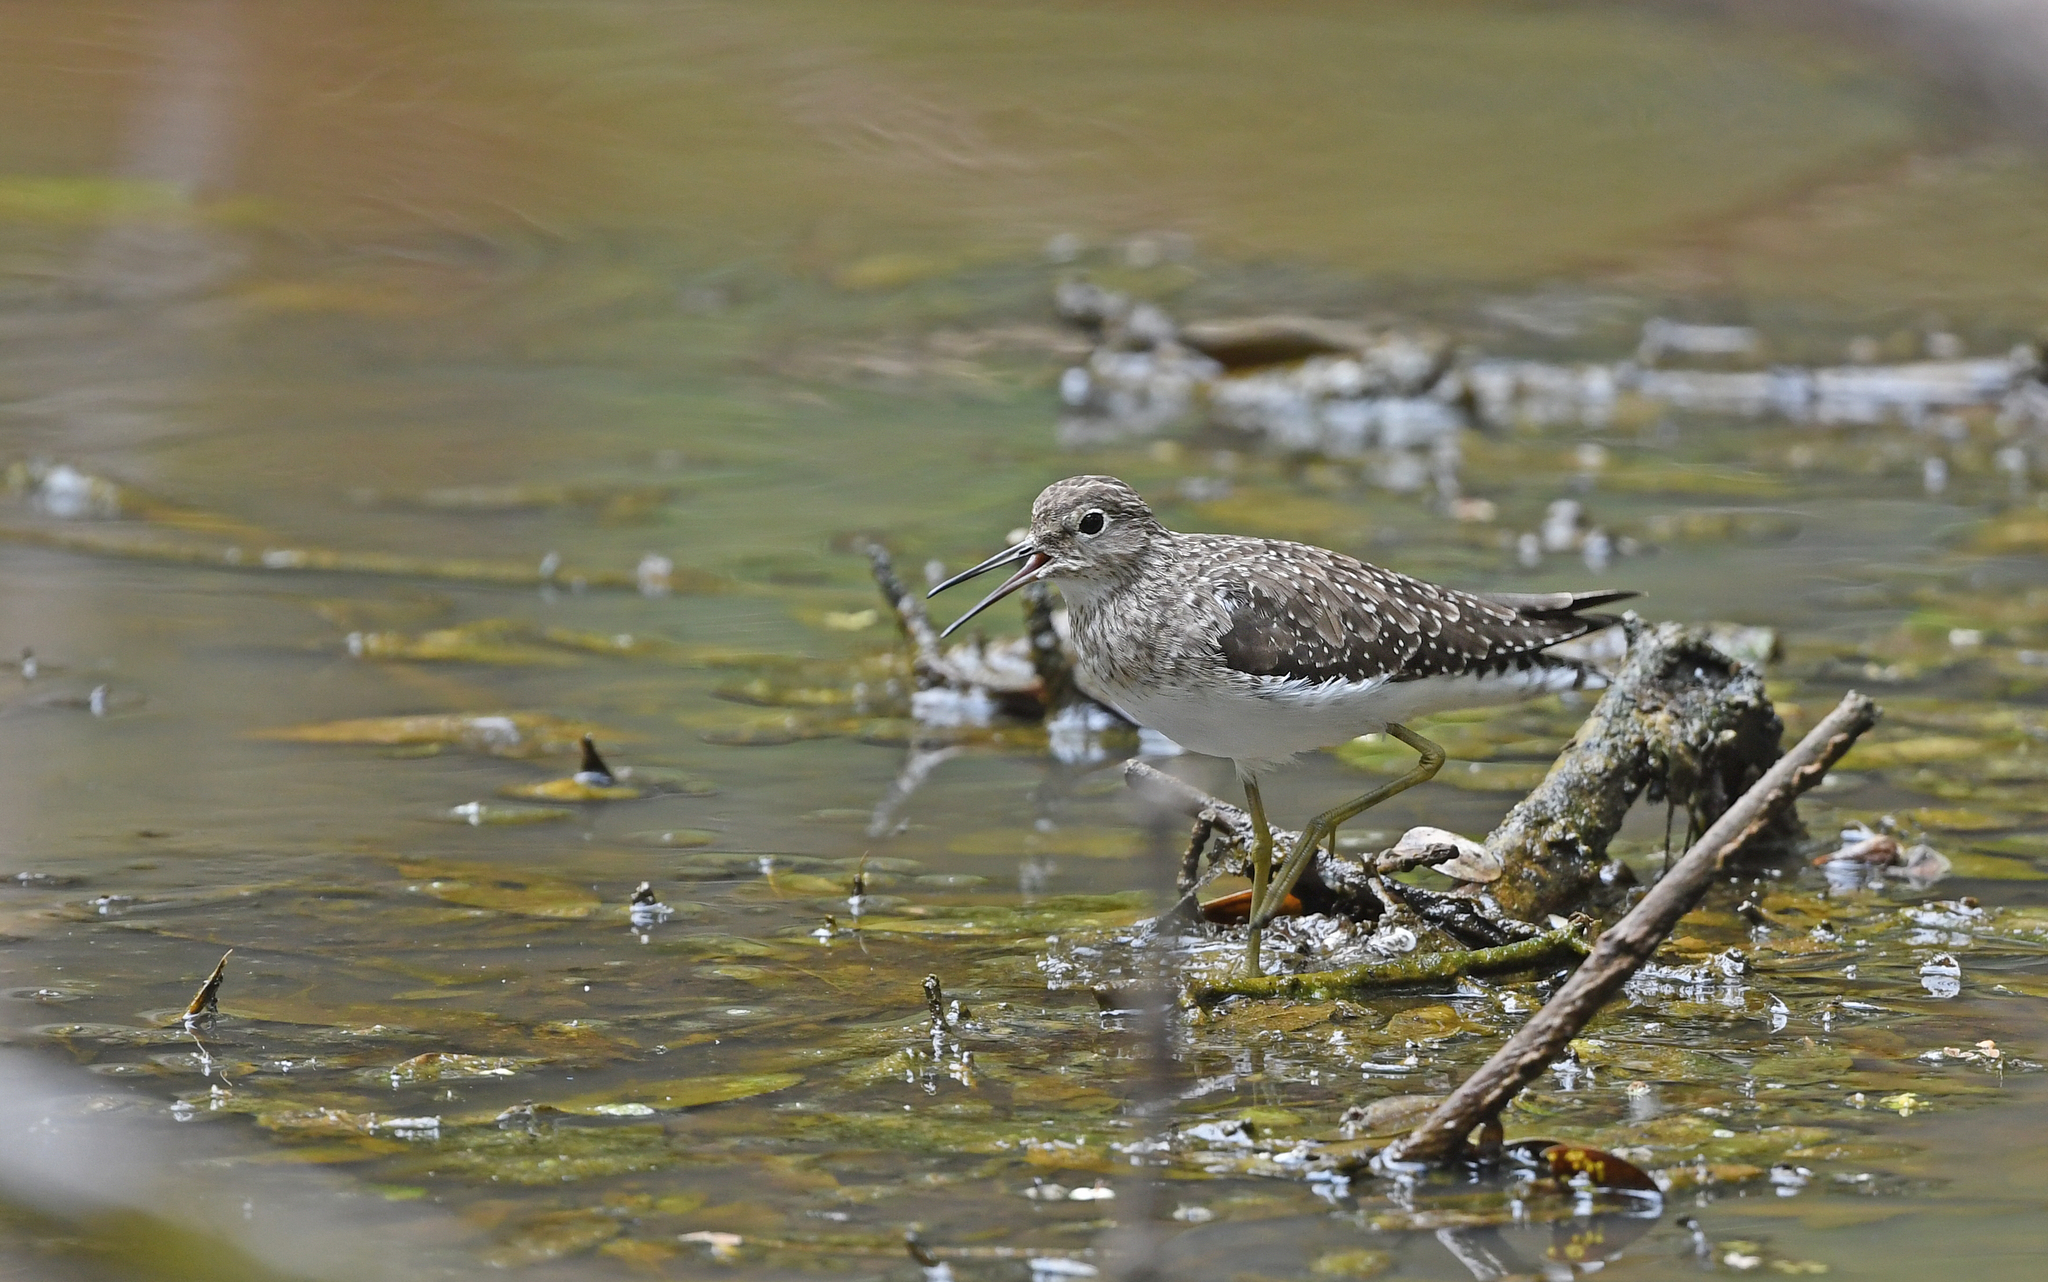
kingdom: Animalia
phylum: Chordata
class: Aves
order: Charadriiformes
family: Scolopacidae
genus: Tringa
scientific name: Tringa solitaria
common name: Solitary sandpiper
